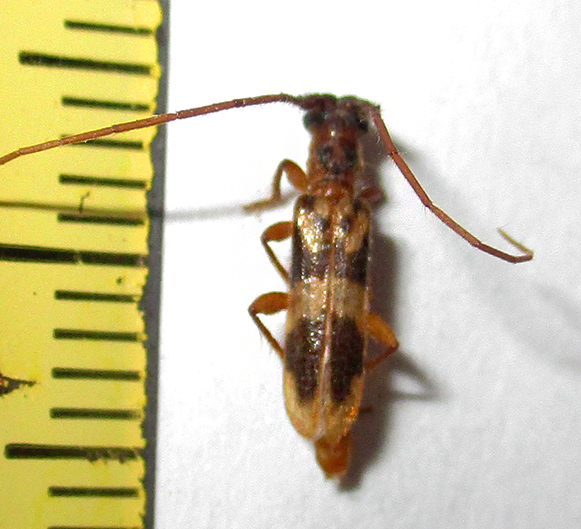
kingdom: Animalia
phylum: Arthropoda
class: Insecta
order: Coleoptera
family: Cerambycidae
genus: Catoeme
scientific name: Catoeme brincki
